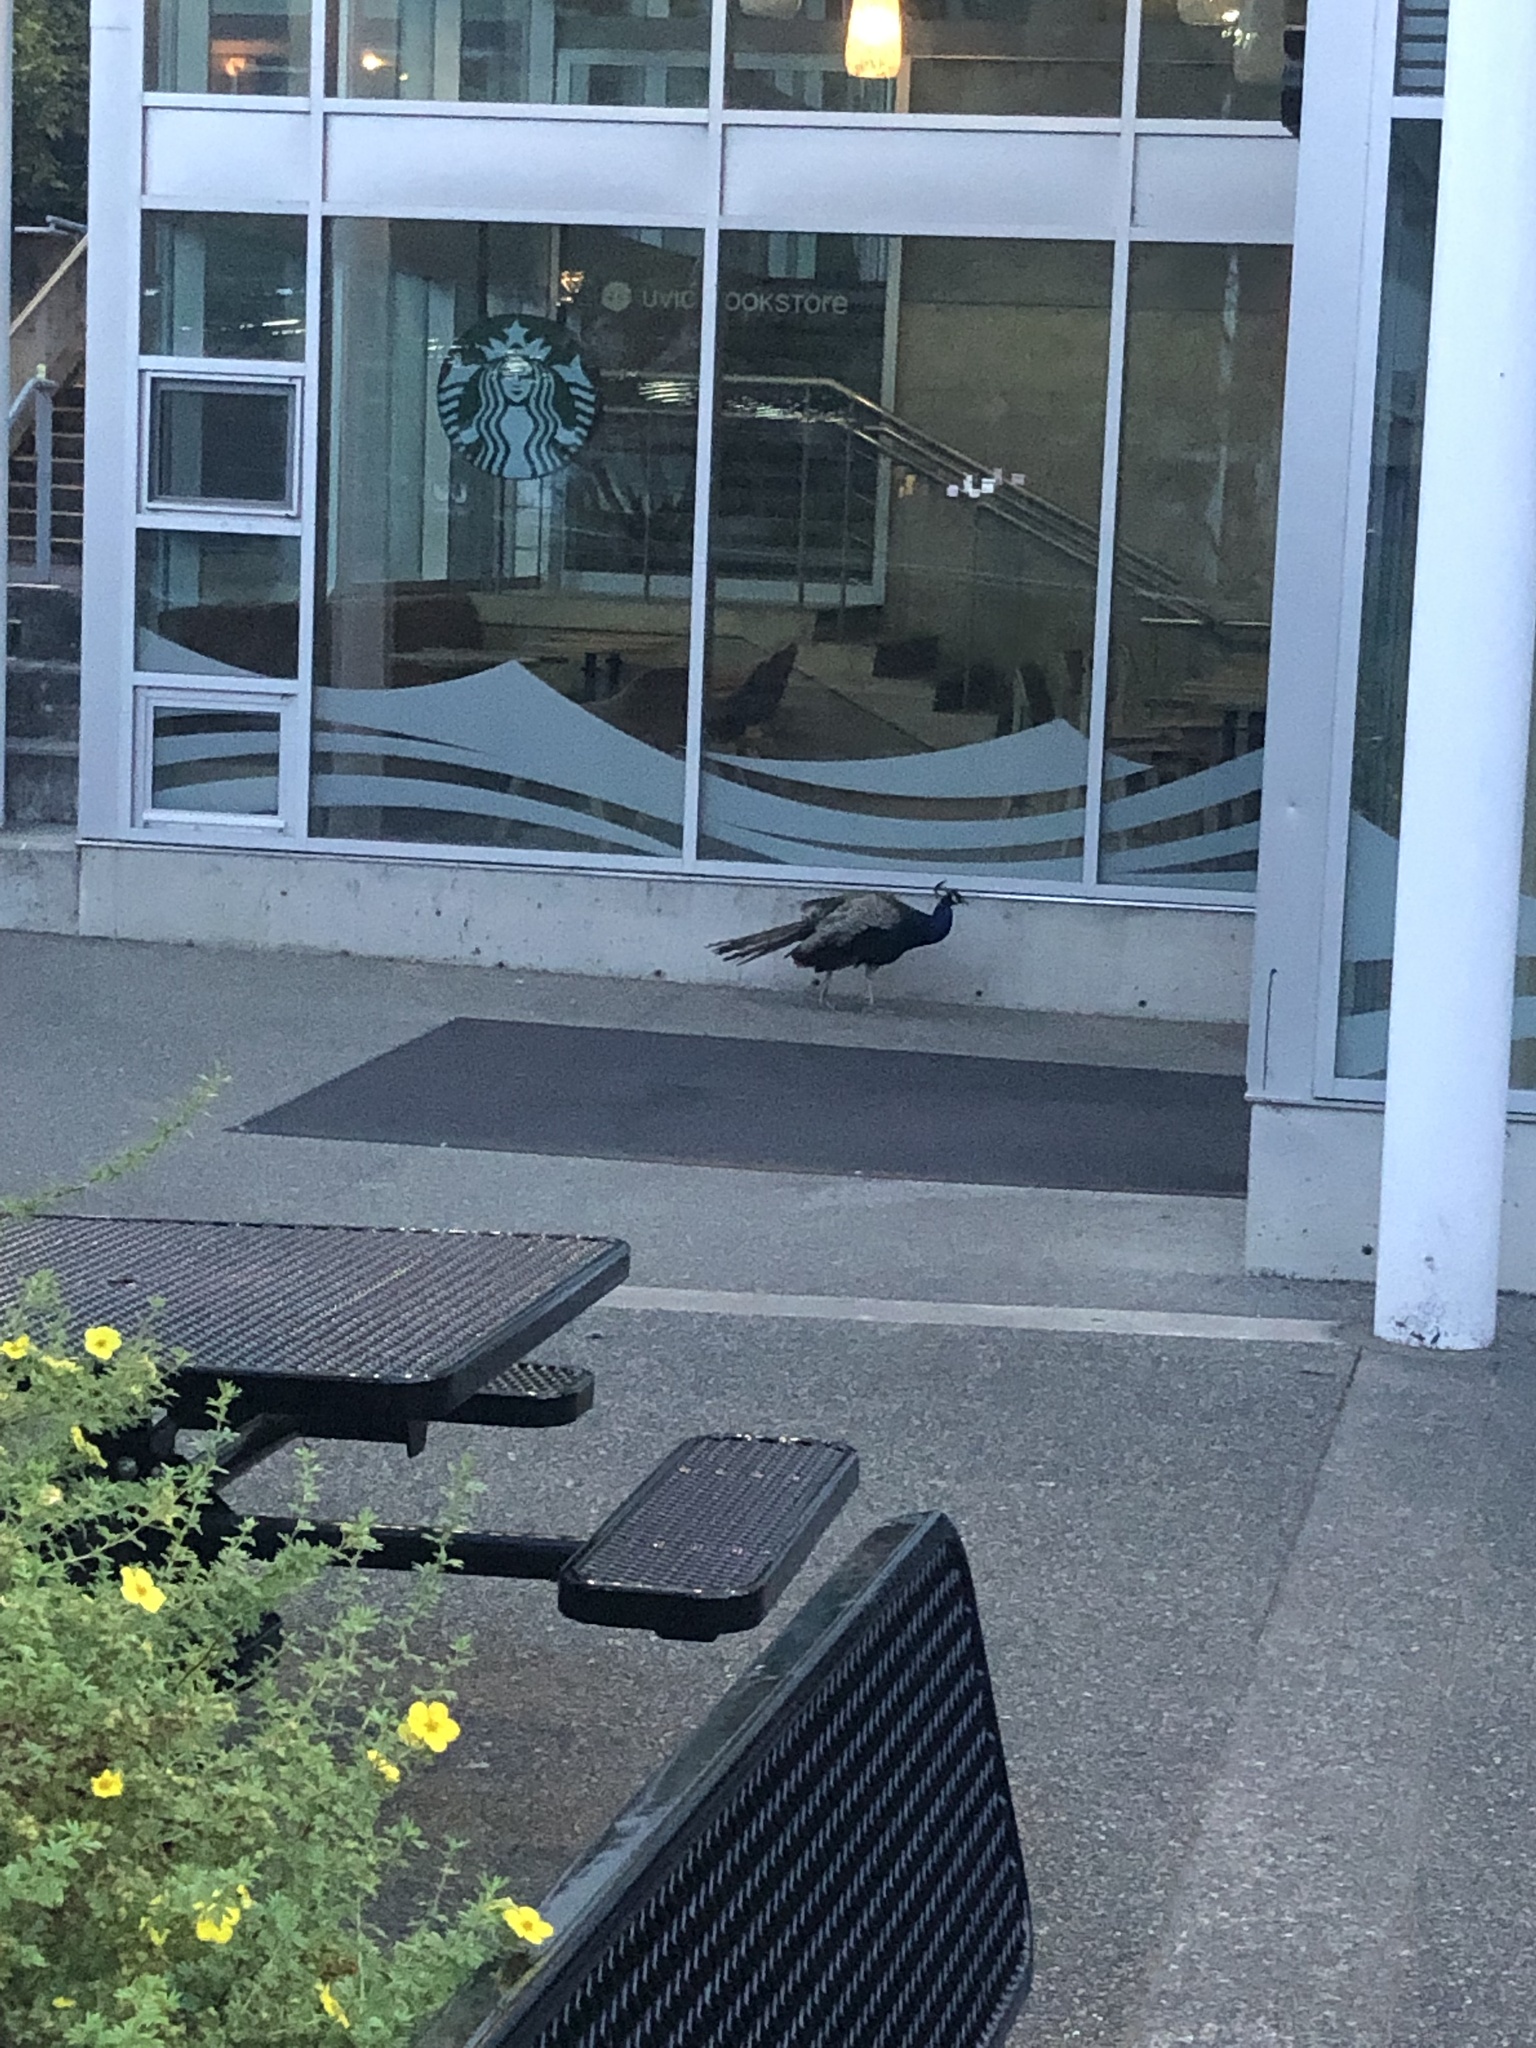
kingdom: Animalia
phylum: Chordata
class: Aves
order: Galliformes
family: Phasianidae
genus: Pavo
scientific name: Pavo cristatus
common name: Indian peafowl
